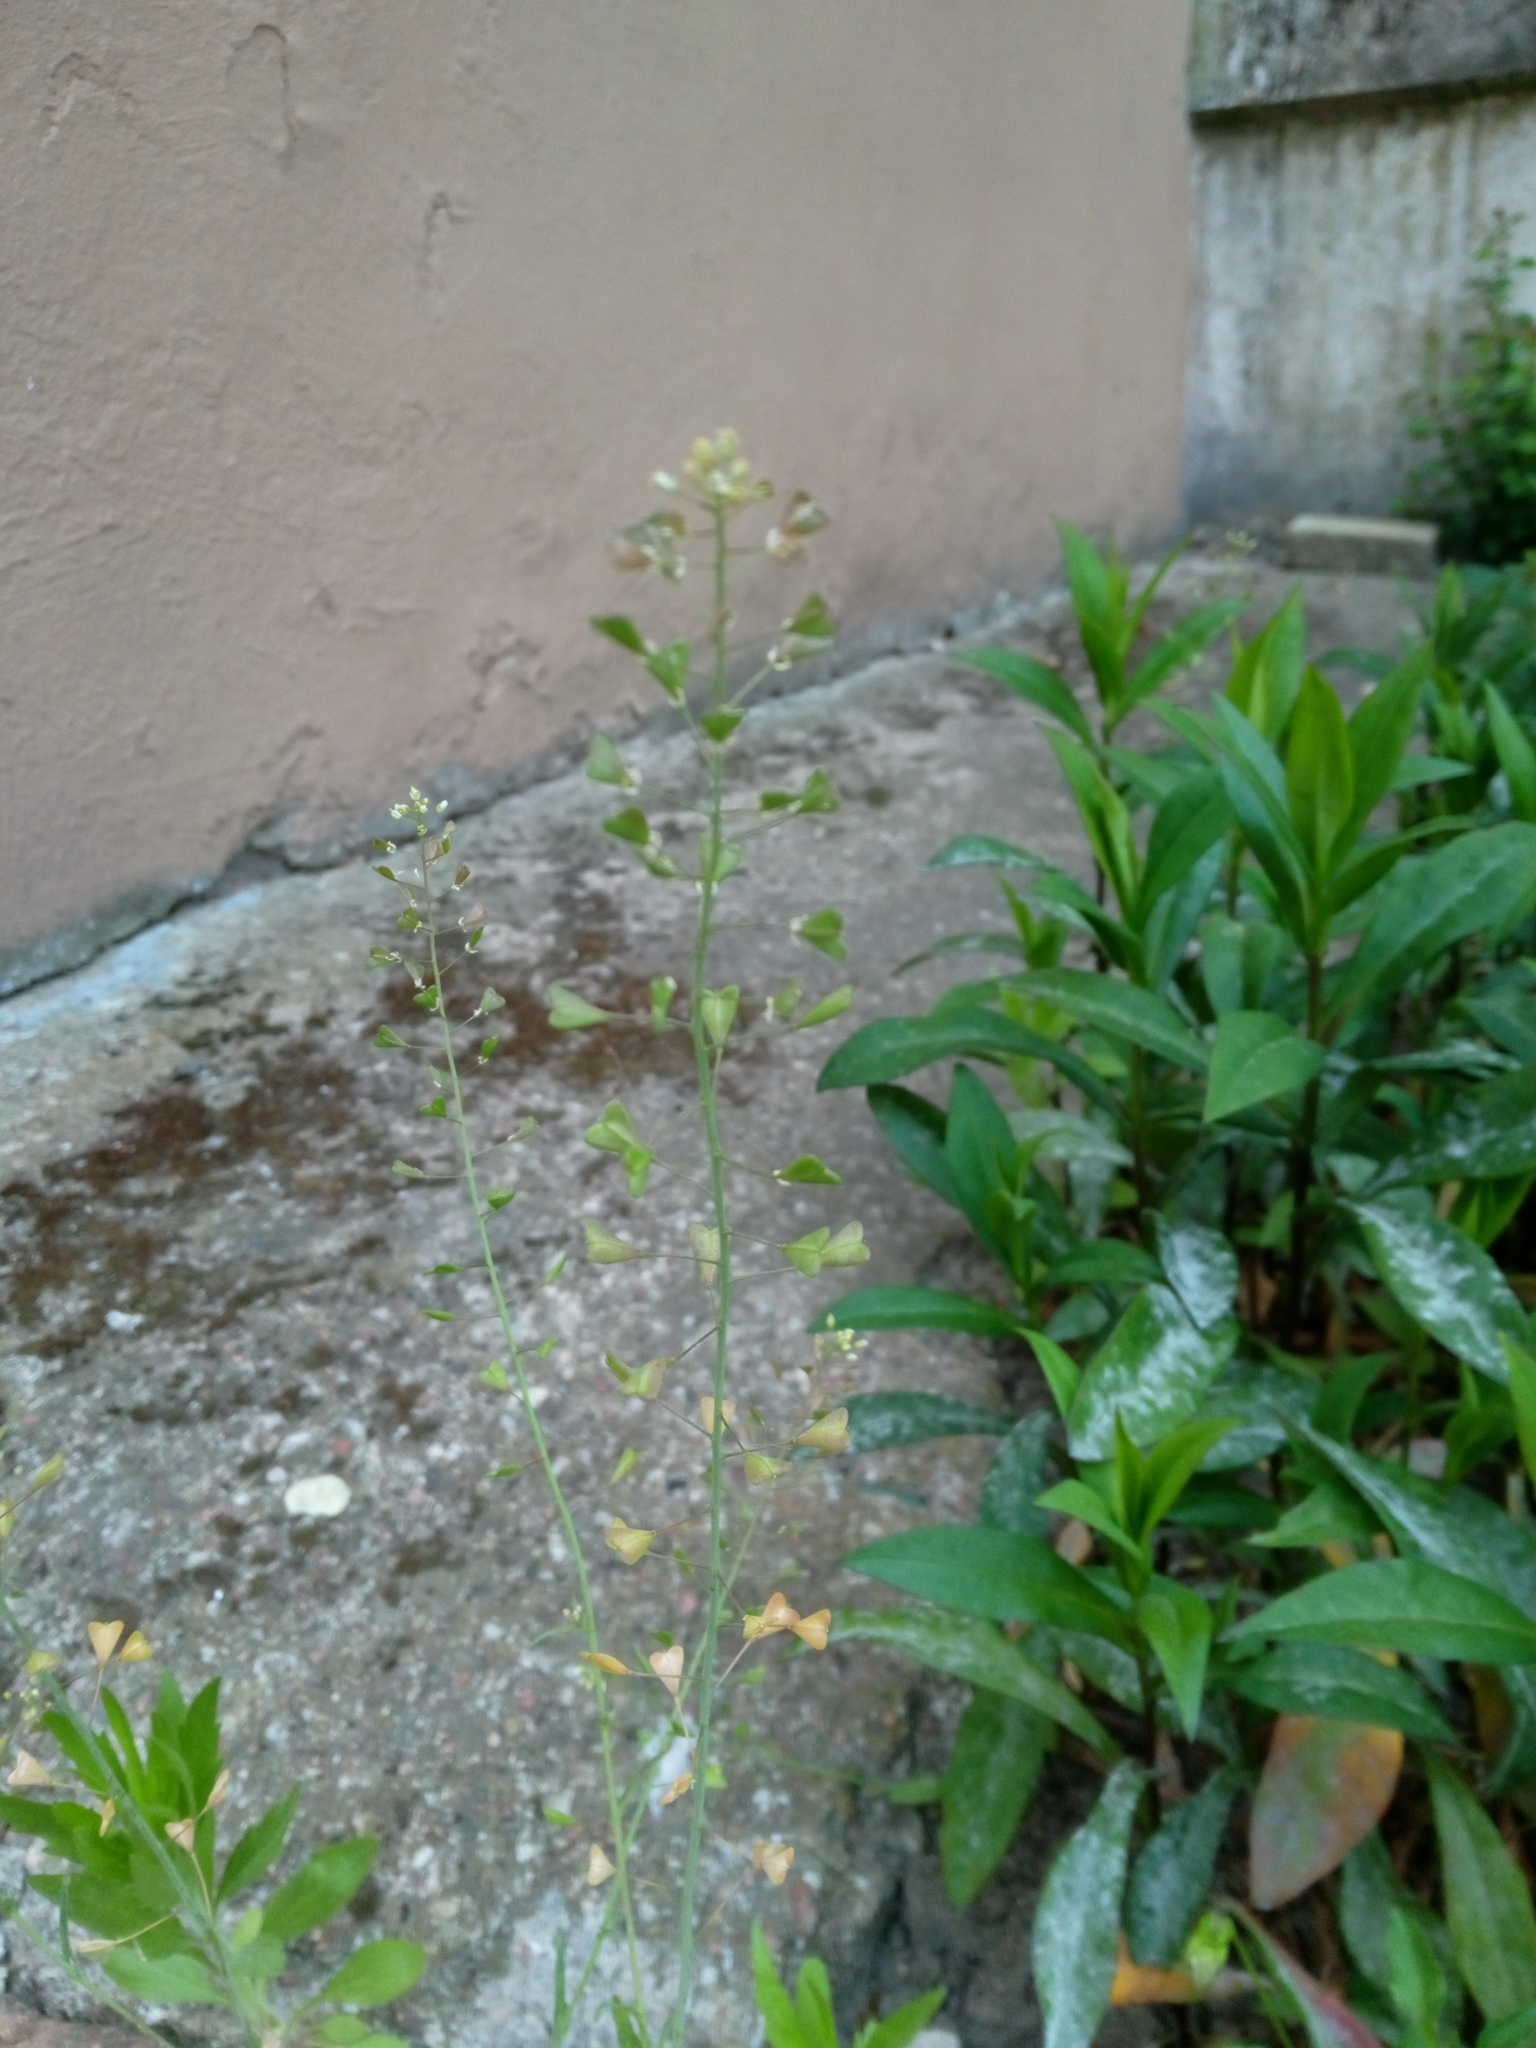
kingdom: Plantae
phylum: Tracheophyta
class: Magnoliopsida
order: Brassicales
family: Brassicaceae
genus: Capsella
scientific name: Capsella bursa-pastoris
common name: Shepherd's purse
